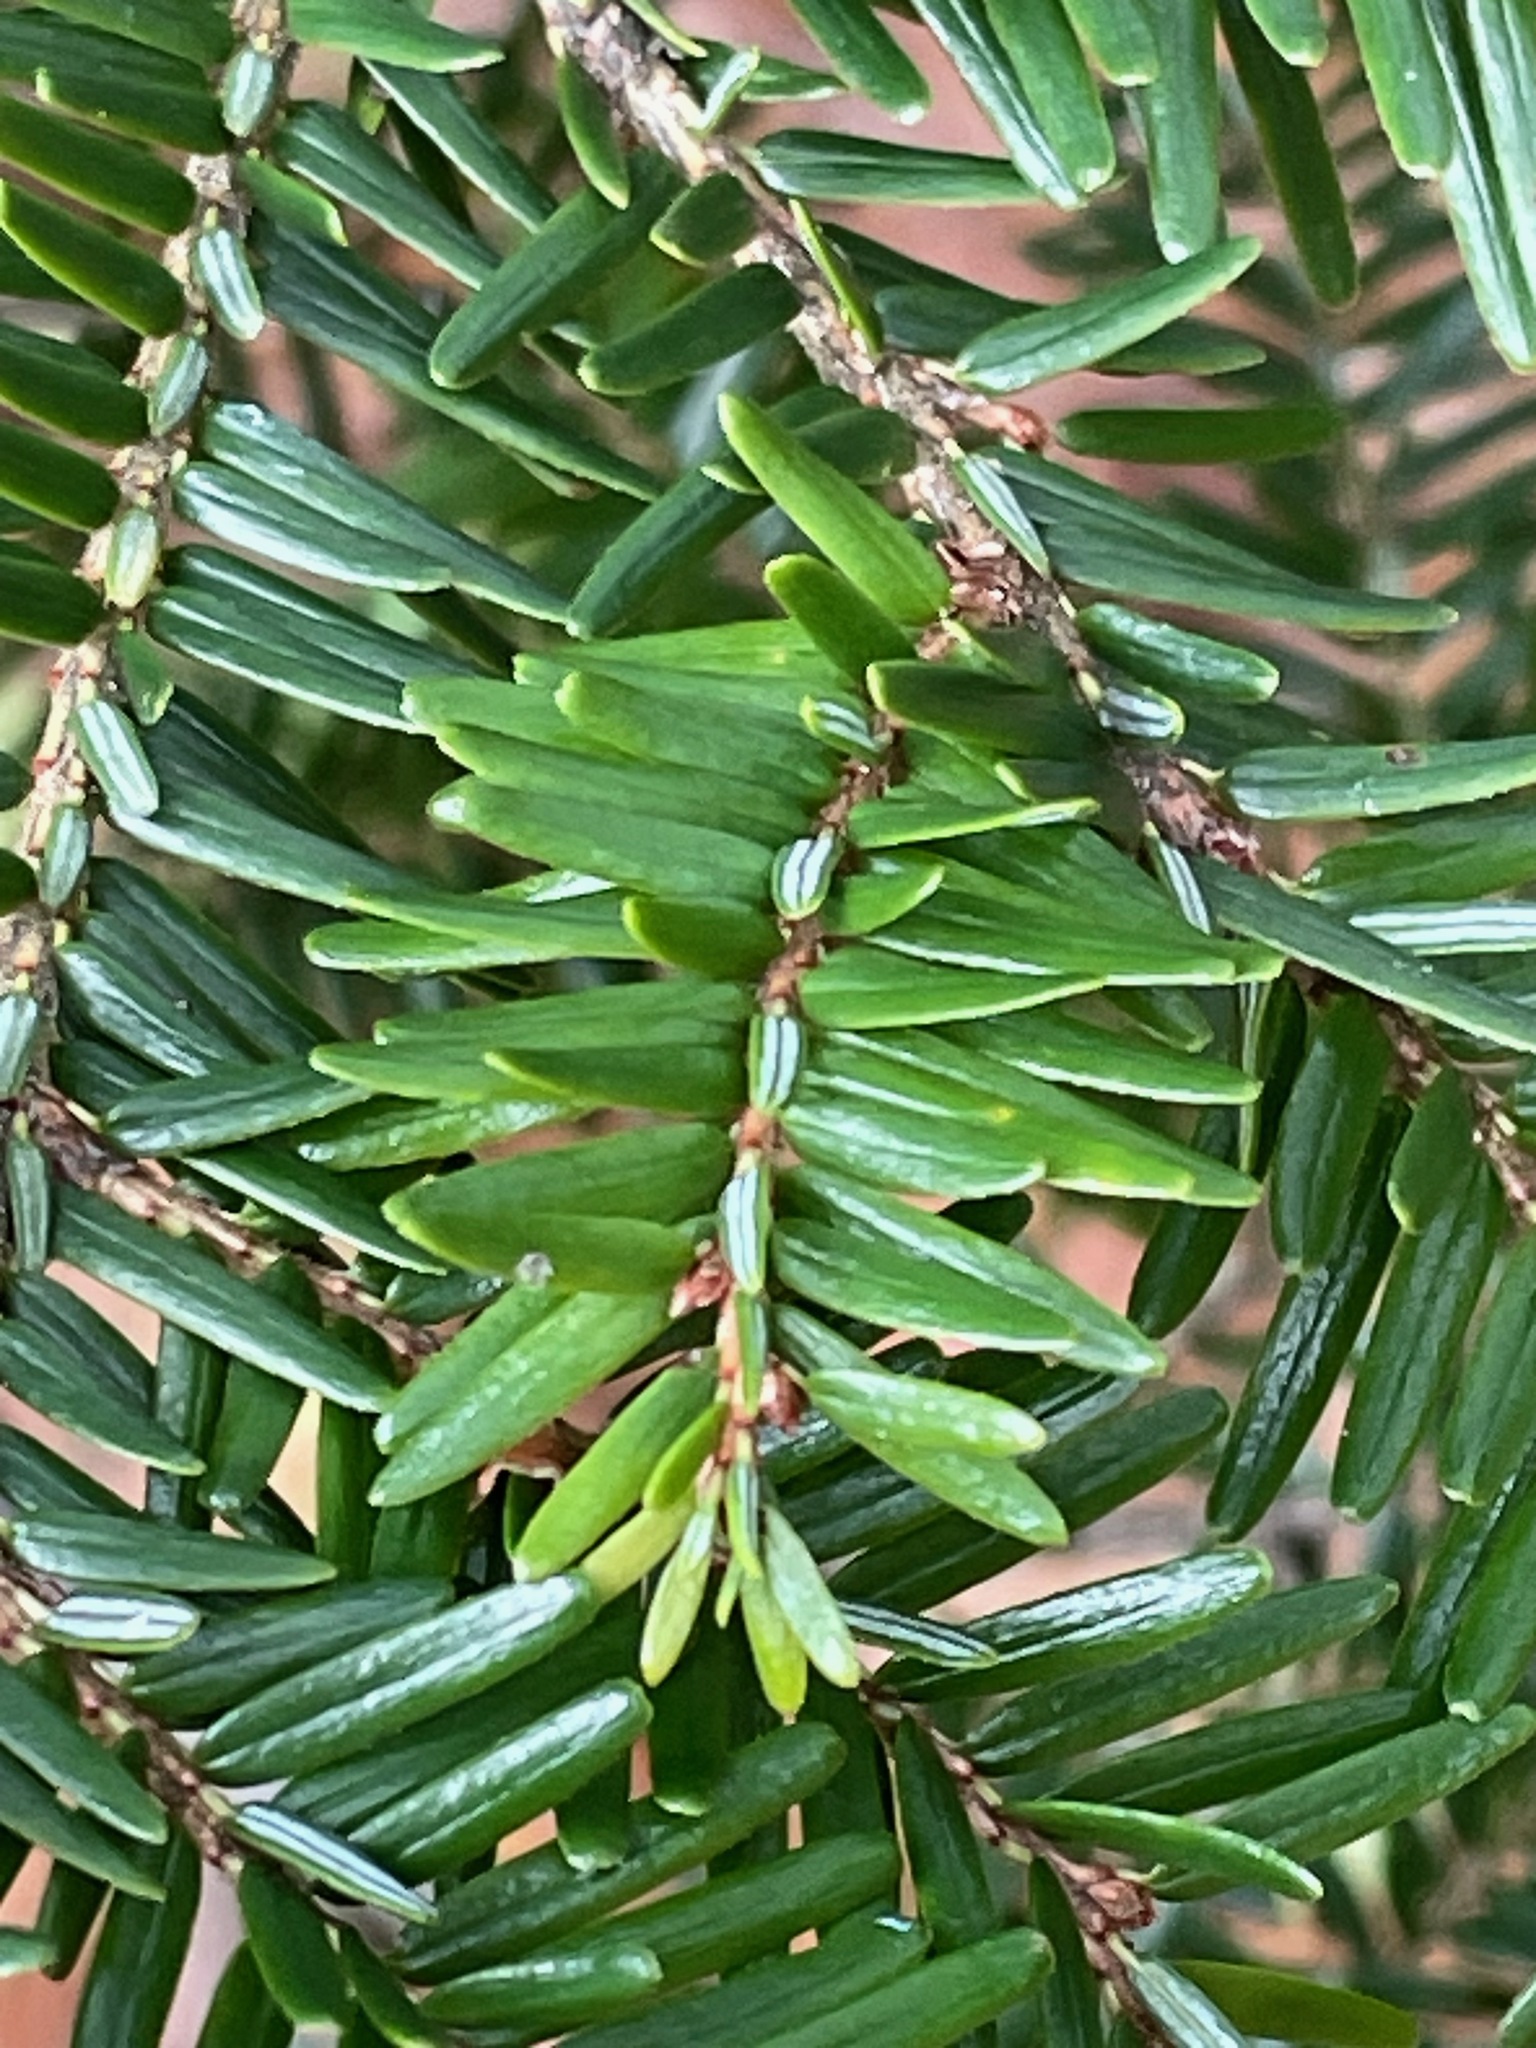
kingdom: Plantae
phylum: Tracheophyta
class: Pinopsida
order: Pinales
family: Pinaceae
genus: Tsuga
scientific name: Tsuga canadensis
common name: Eastern hemlock
